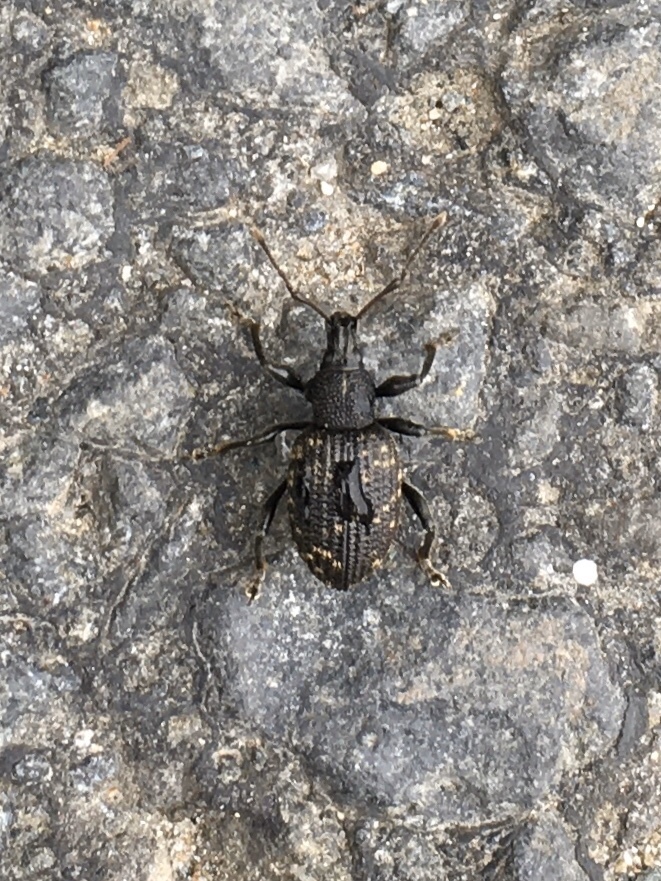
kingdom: Animalia
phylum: Arthropoda
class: Insecta
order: Coleoptera
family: Curculionidae
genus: Otiorhynchus
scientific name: Otiorhynchus sulcatus
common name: Black vine weevil
